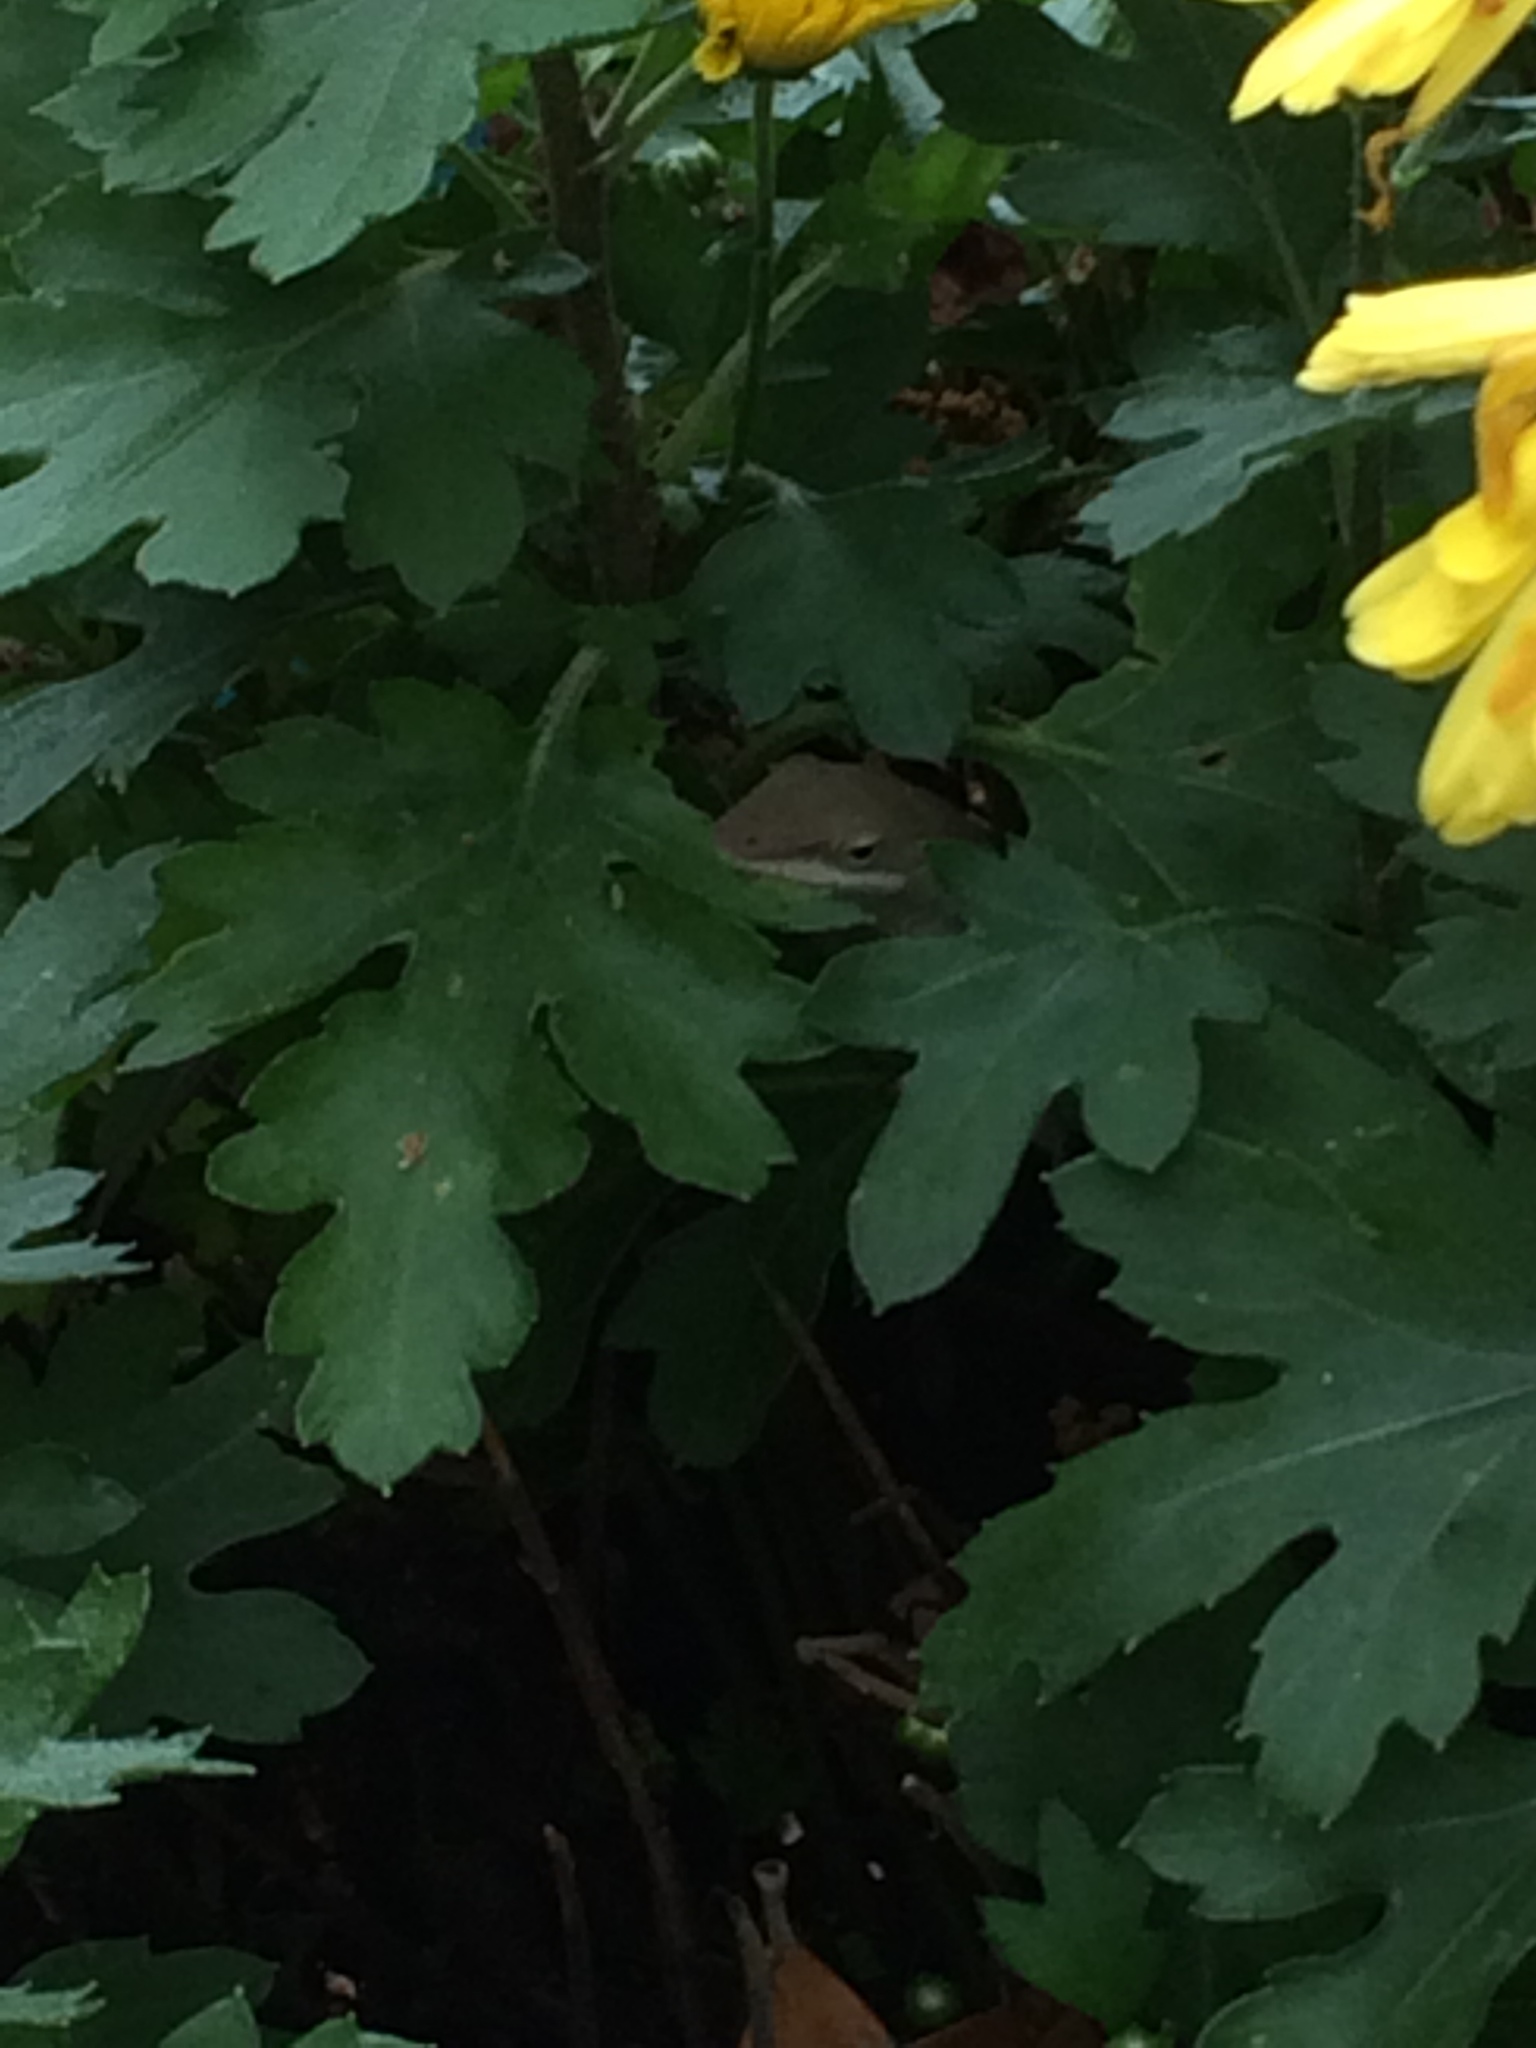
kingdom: Animalia
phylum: Chordata
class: Squamata
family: Dactyloidae
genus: Anolis
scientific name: Anolis carolinensis
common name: Green anole
